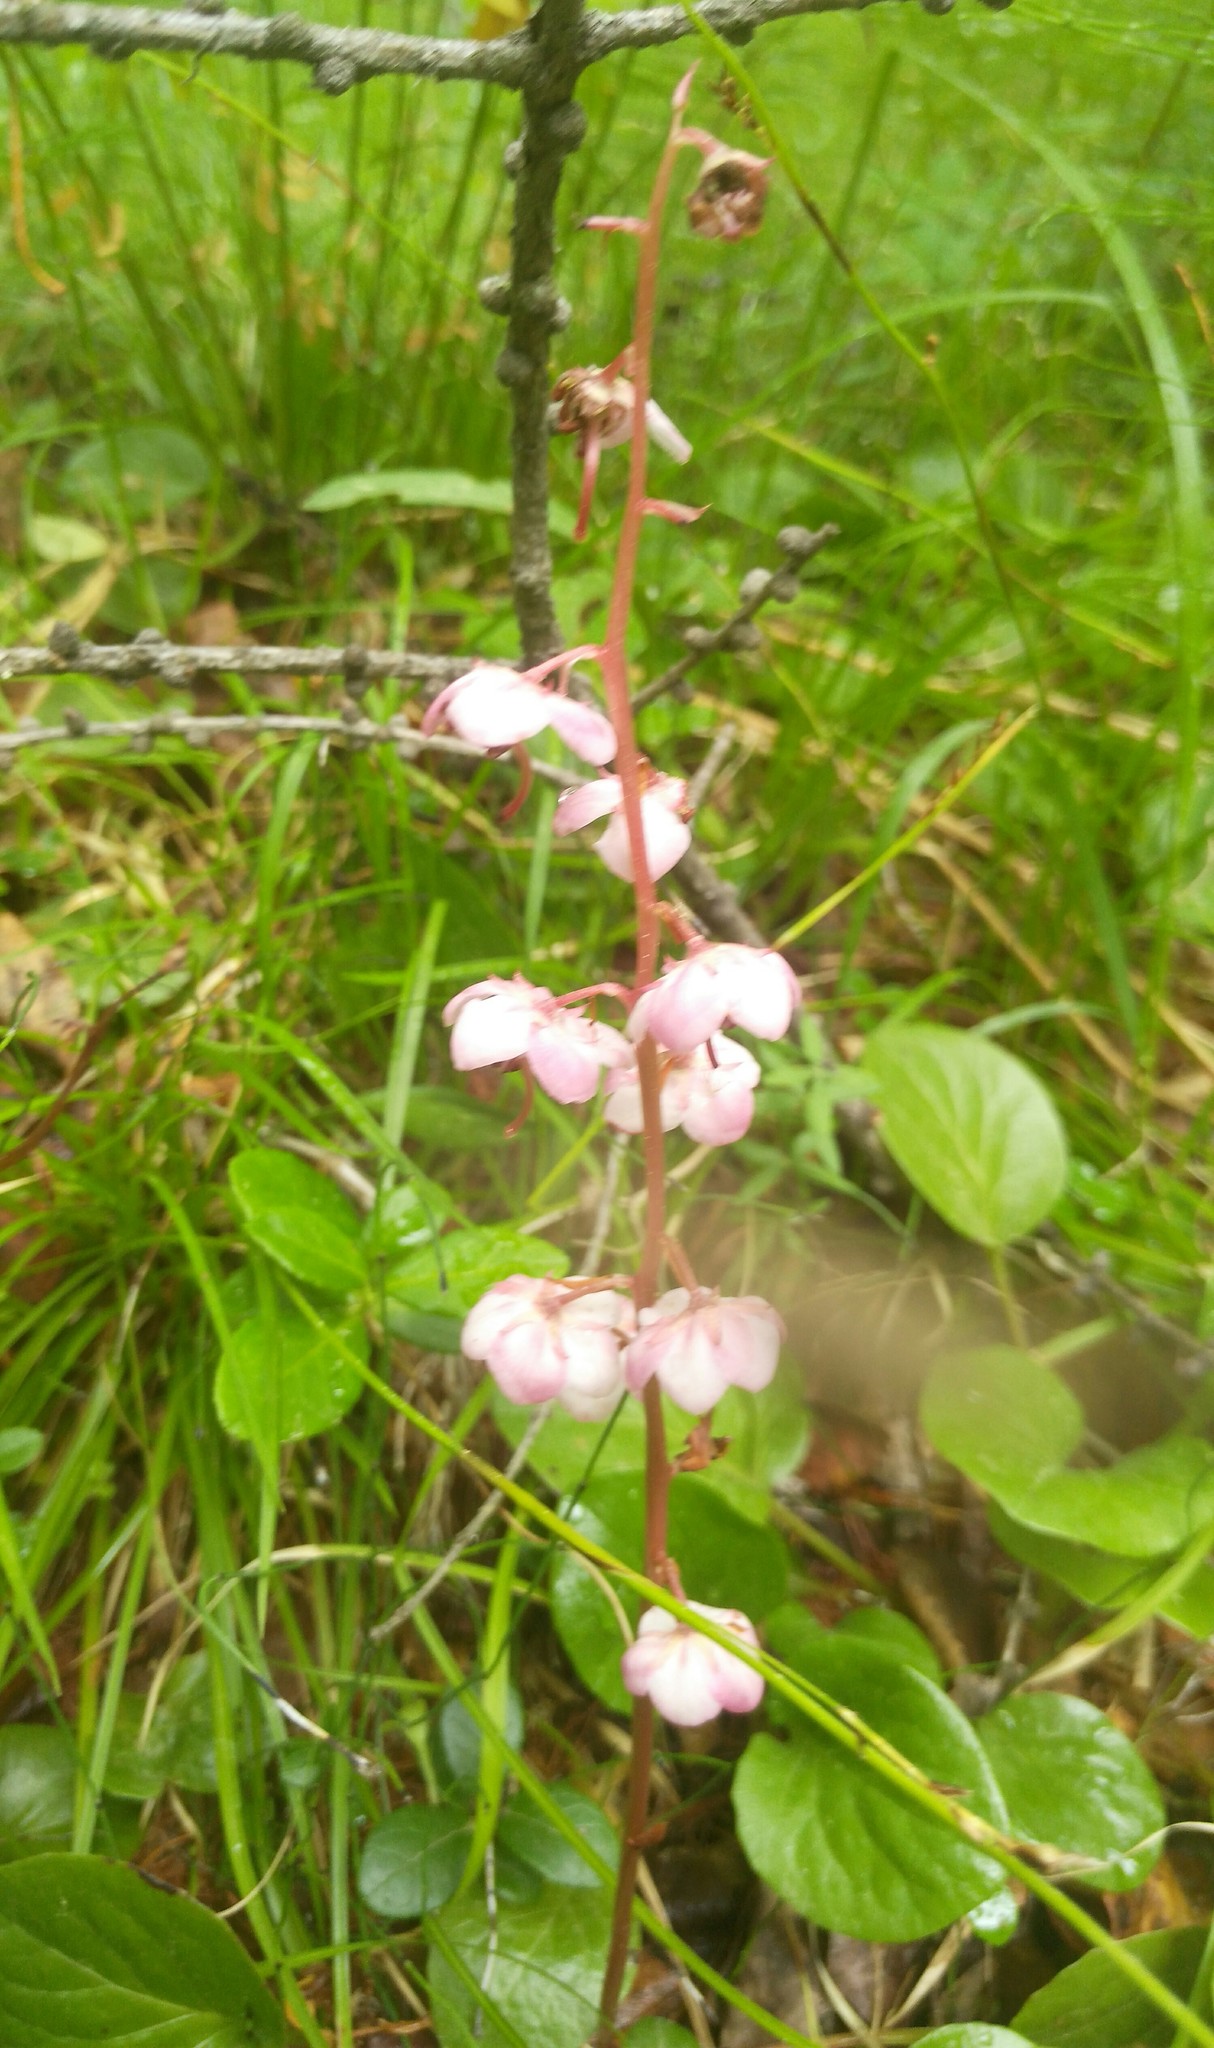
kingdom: Plantae
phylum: Tracheophyta
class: Magnoliopsida
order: Ericales
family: Ericaceae
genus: Pyrola
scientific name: Pyrola asarifolia
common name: Bog wintergreen
